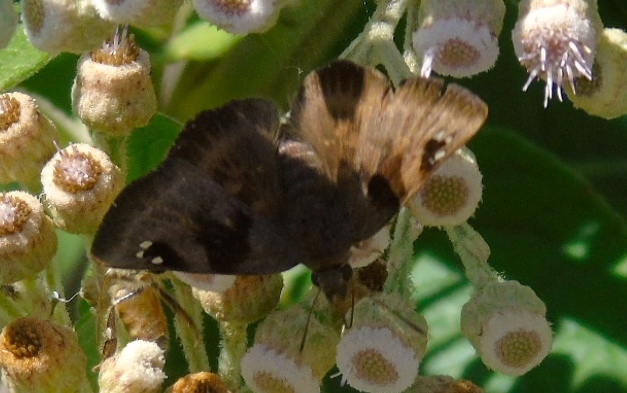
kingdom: Animalia
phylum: Arthropoda
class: Insecta
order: Lepidoptera
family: Hesperiidae
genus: Arteurotia
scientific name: Arteurotia tractipennis
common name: Starred skipper
